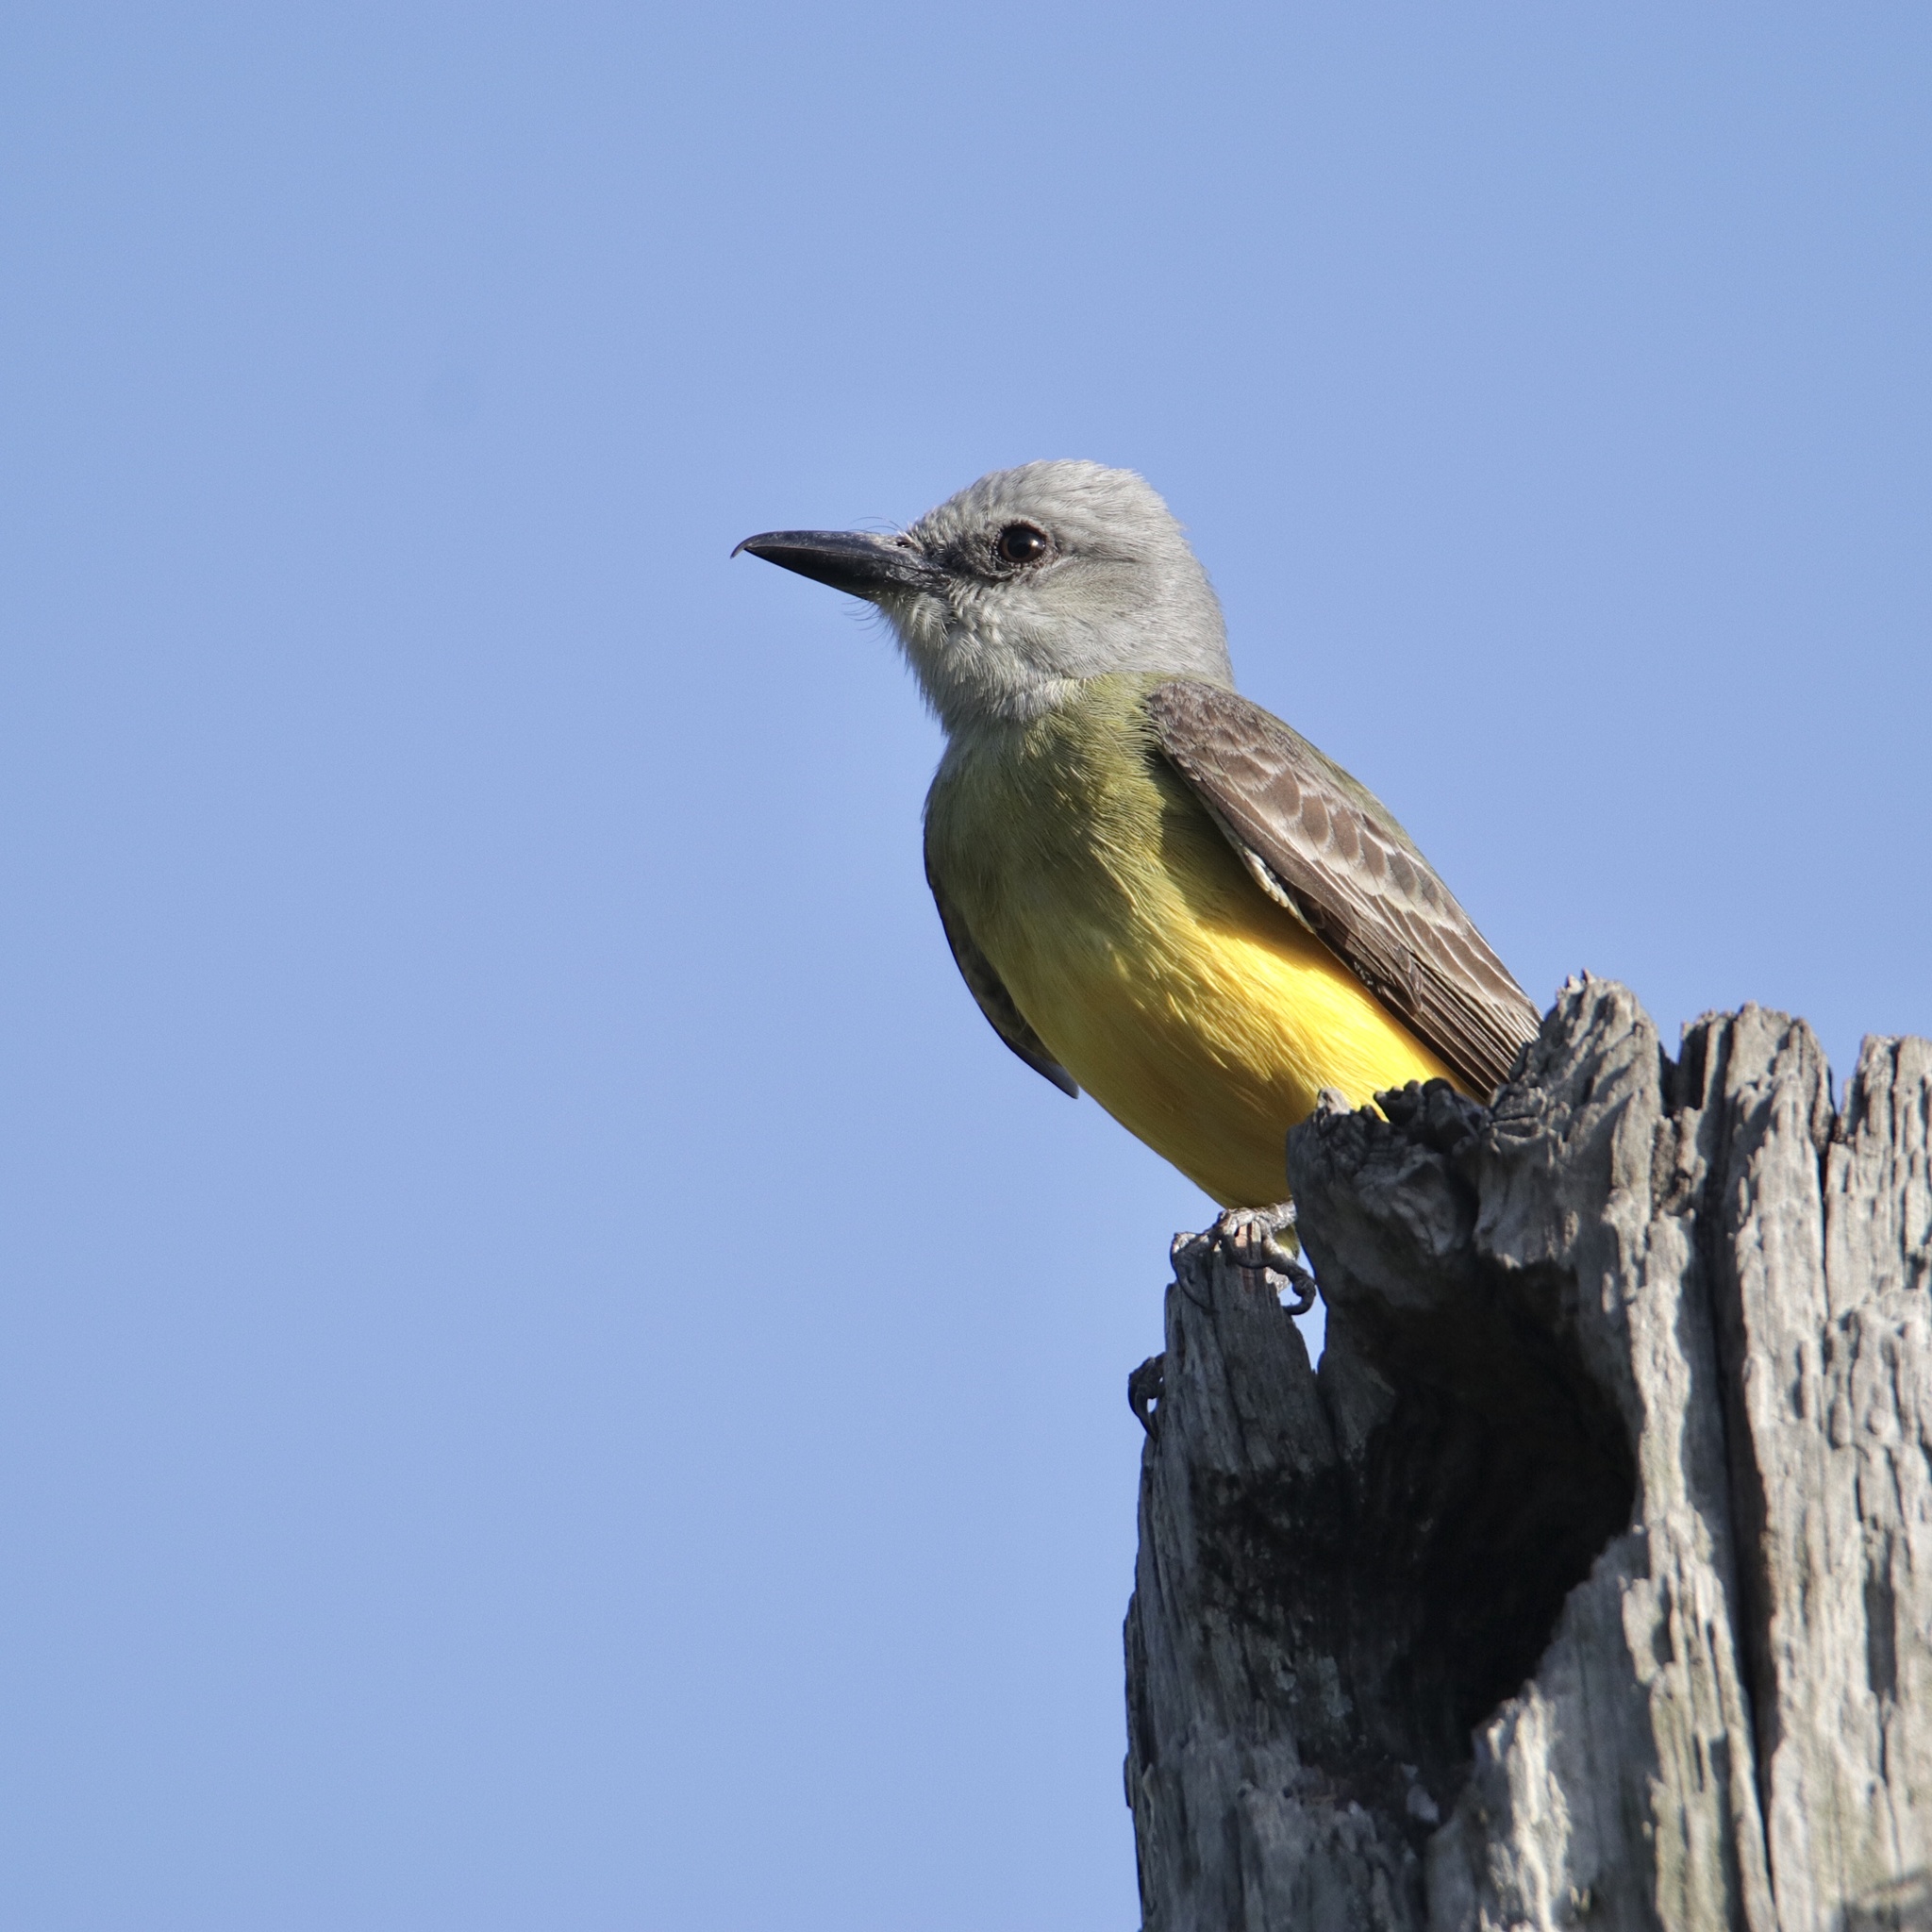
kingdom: Animalia
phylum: Chordata
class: Aves
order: Passeriformes
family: Tyrannidae
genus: Tyrannus
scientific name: Tyrannus melancholicus
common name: Tropical kingbird
